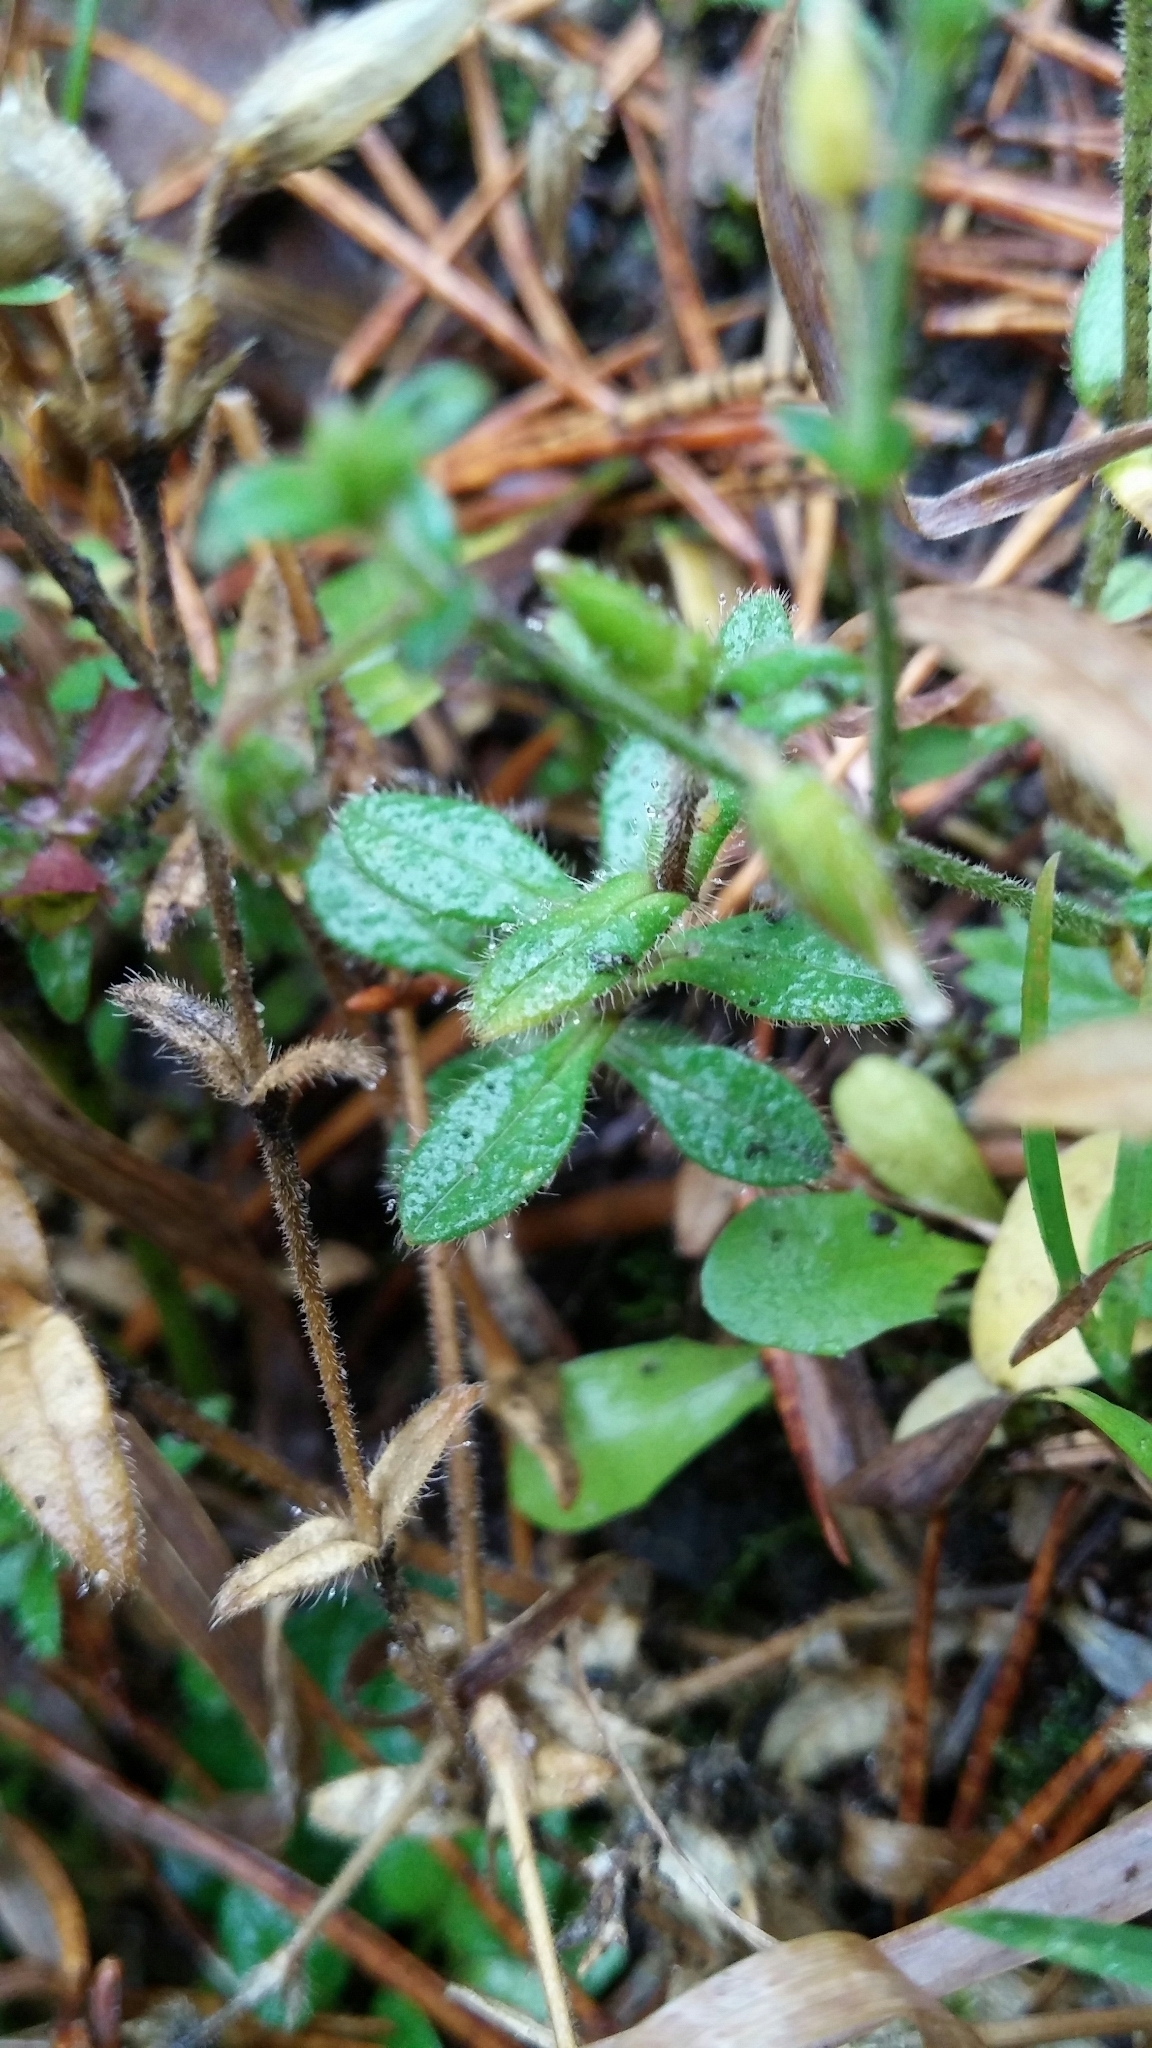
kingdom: Plantae
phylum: Tracheophyta
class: Magnoliopsida
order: Caryophyllales
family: Caryophyllaceae
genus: Cerastium
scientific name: Cerastium fontanum
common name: Common mouse-ear
